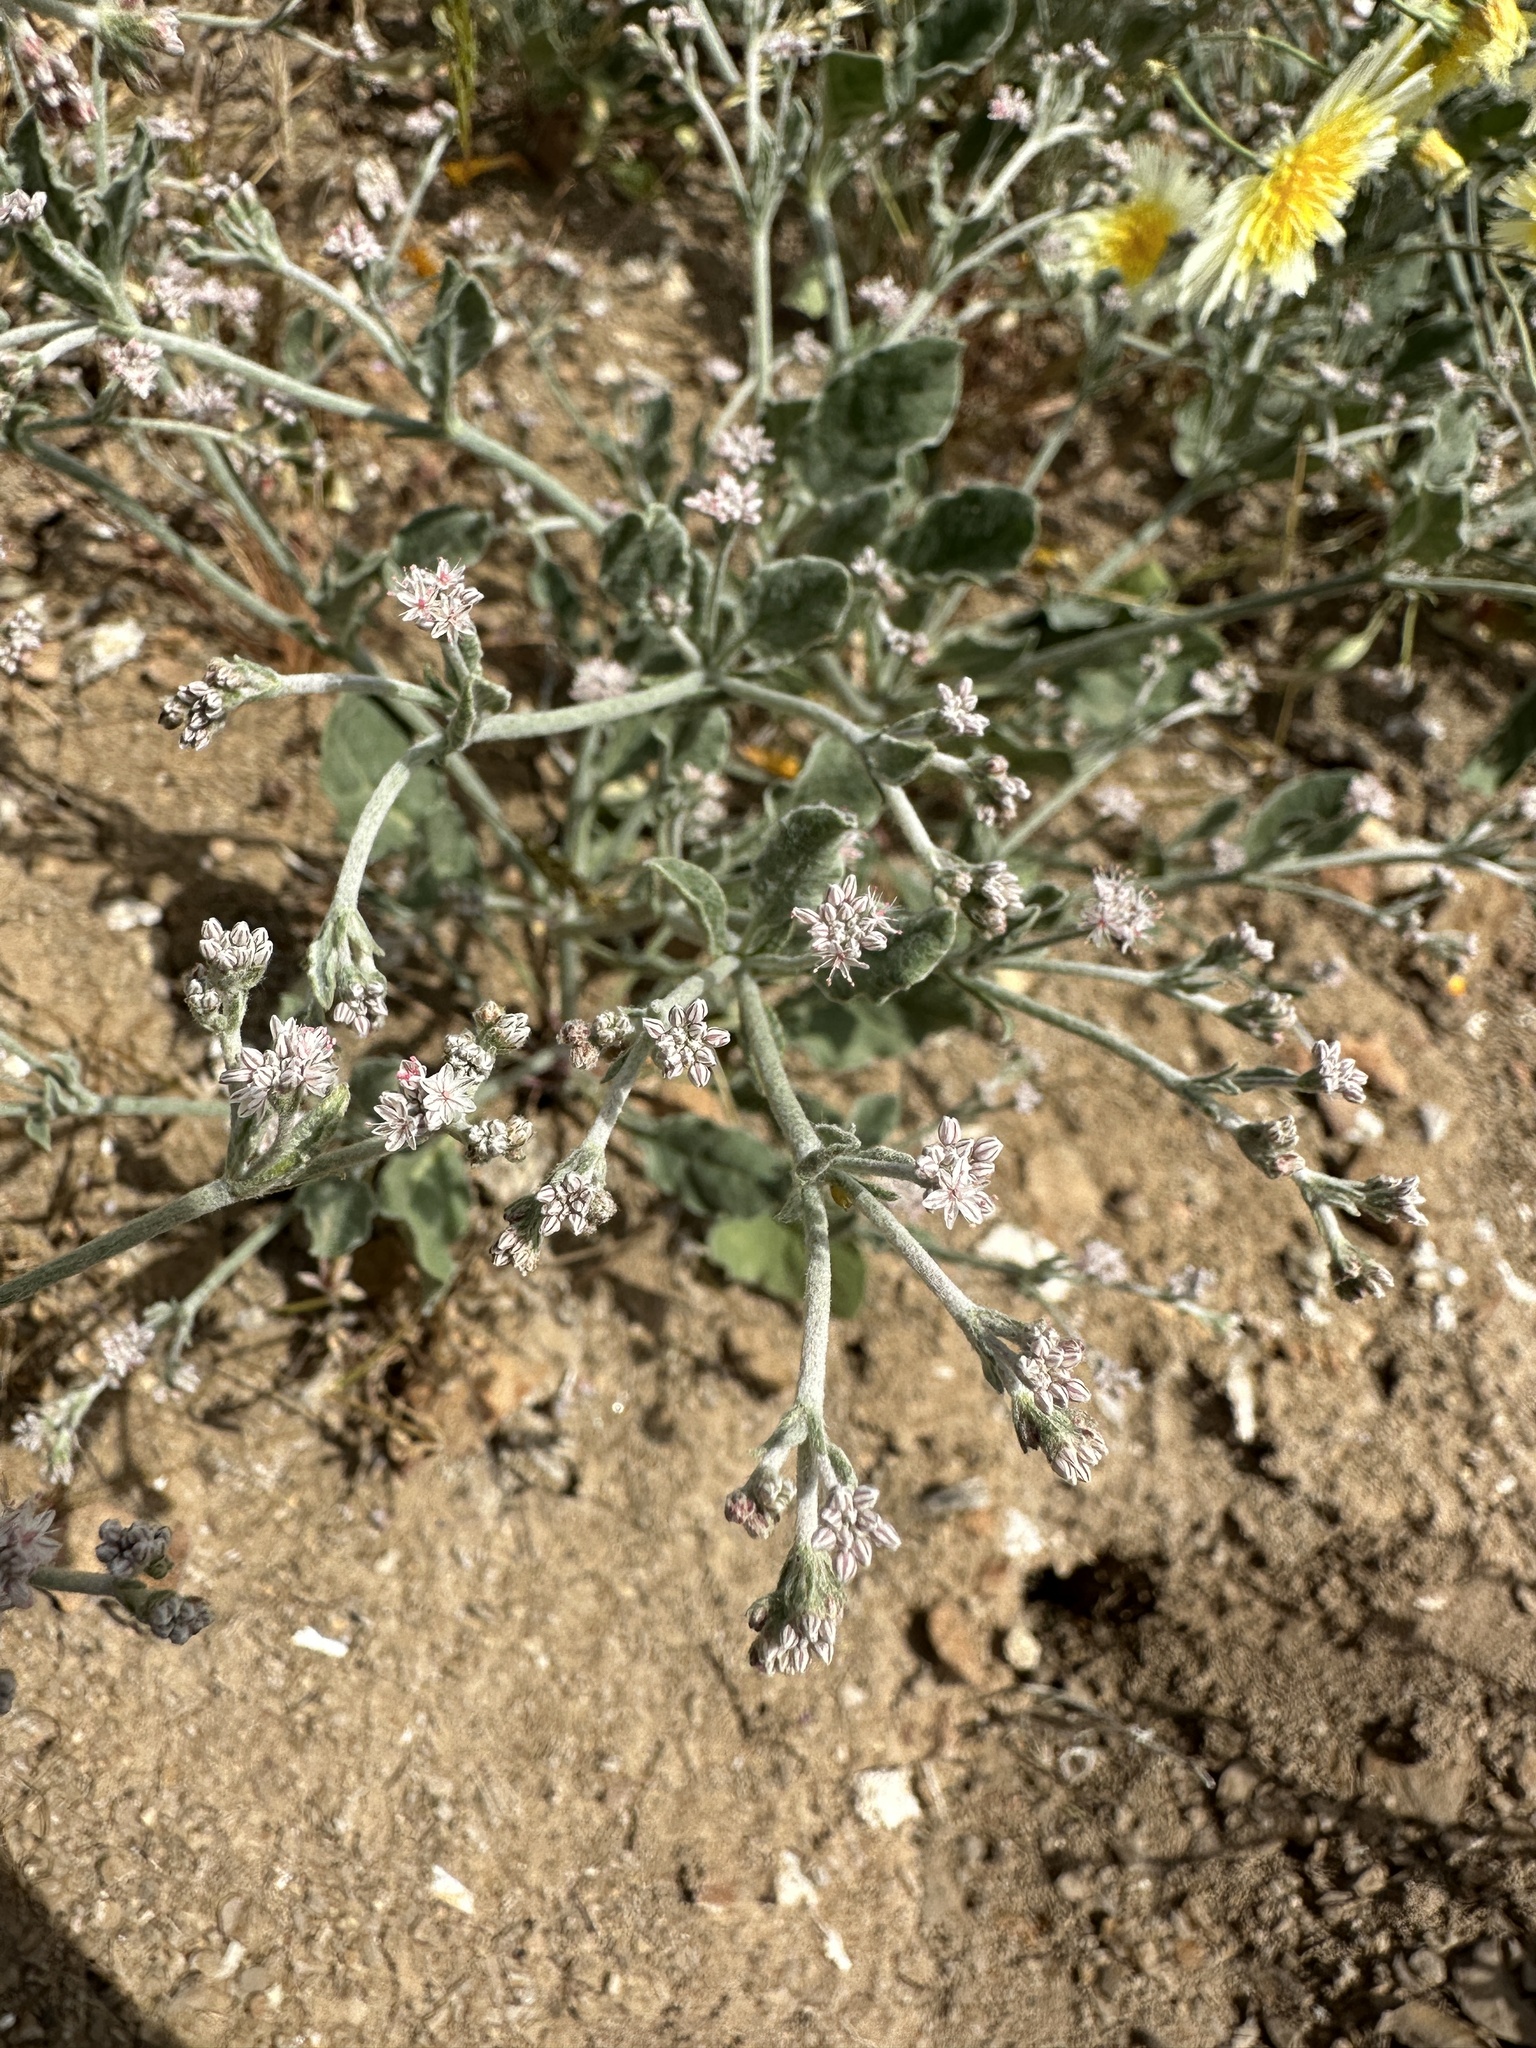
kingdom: Plantae
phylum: Tracheophyta
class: Magnoliopsida
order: Caryophyllales
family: Polygonaceae
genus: Eriogonum
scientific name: Eriogonum vestitum
